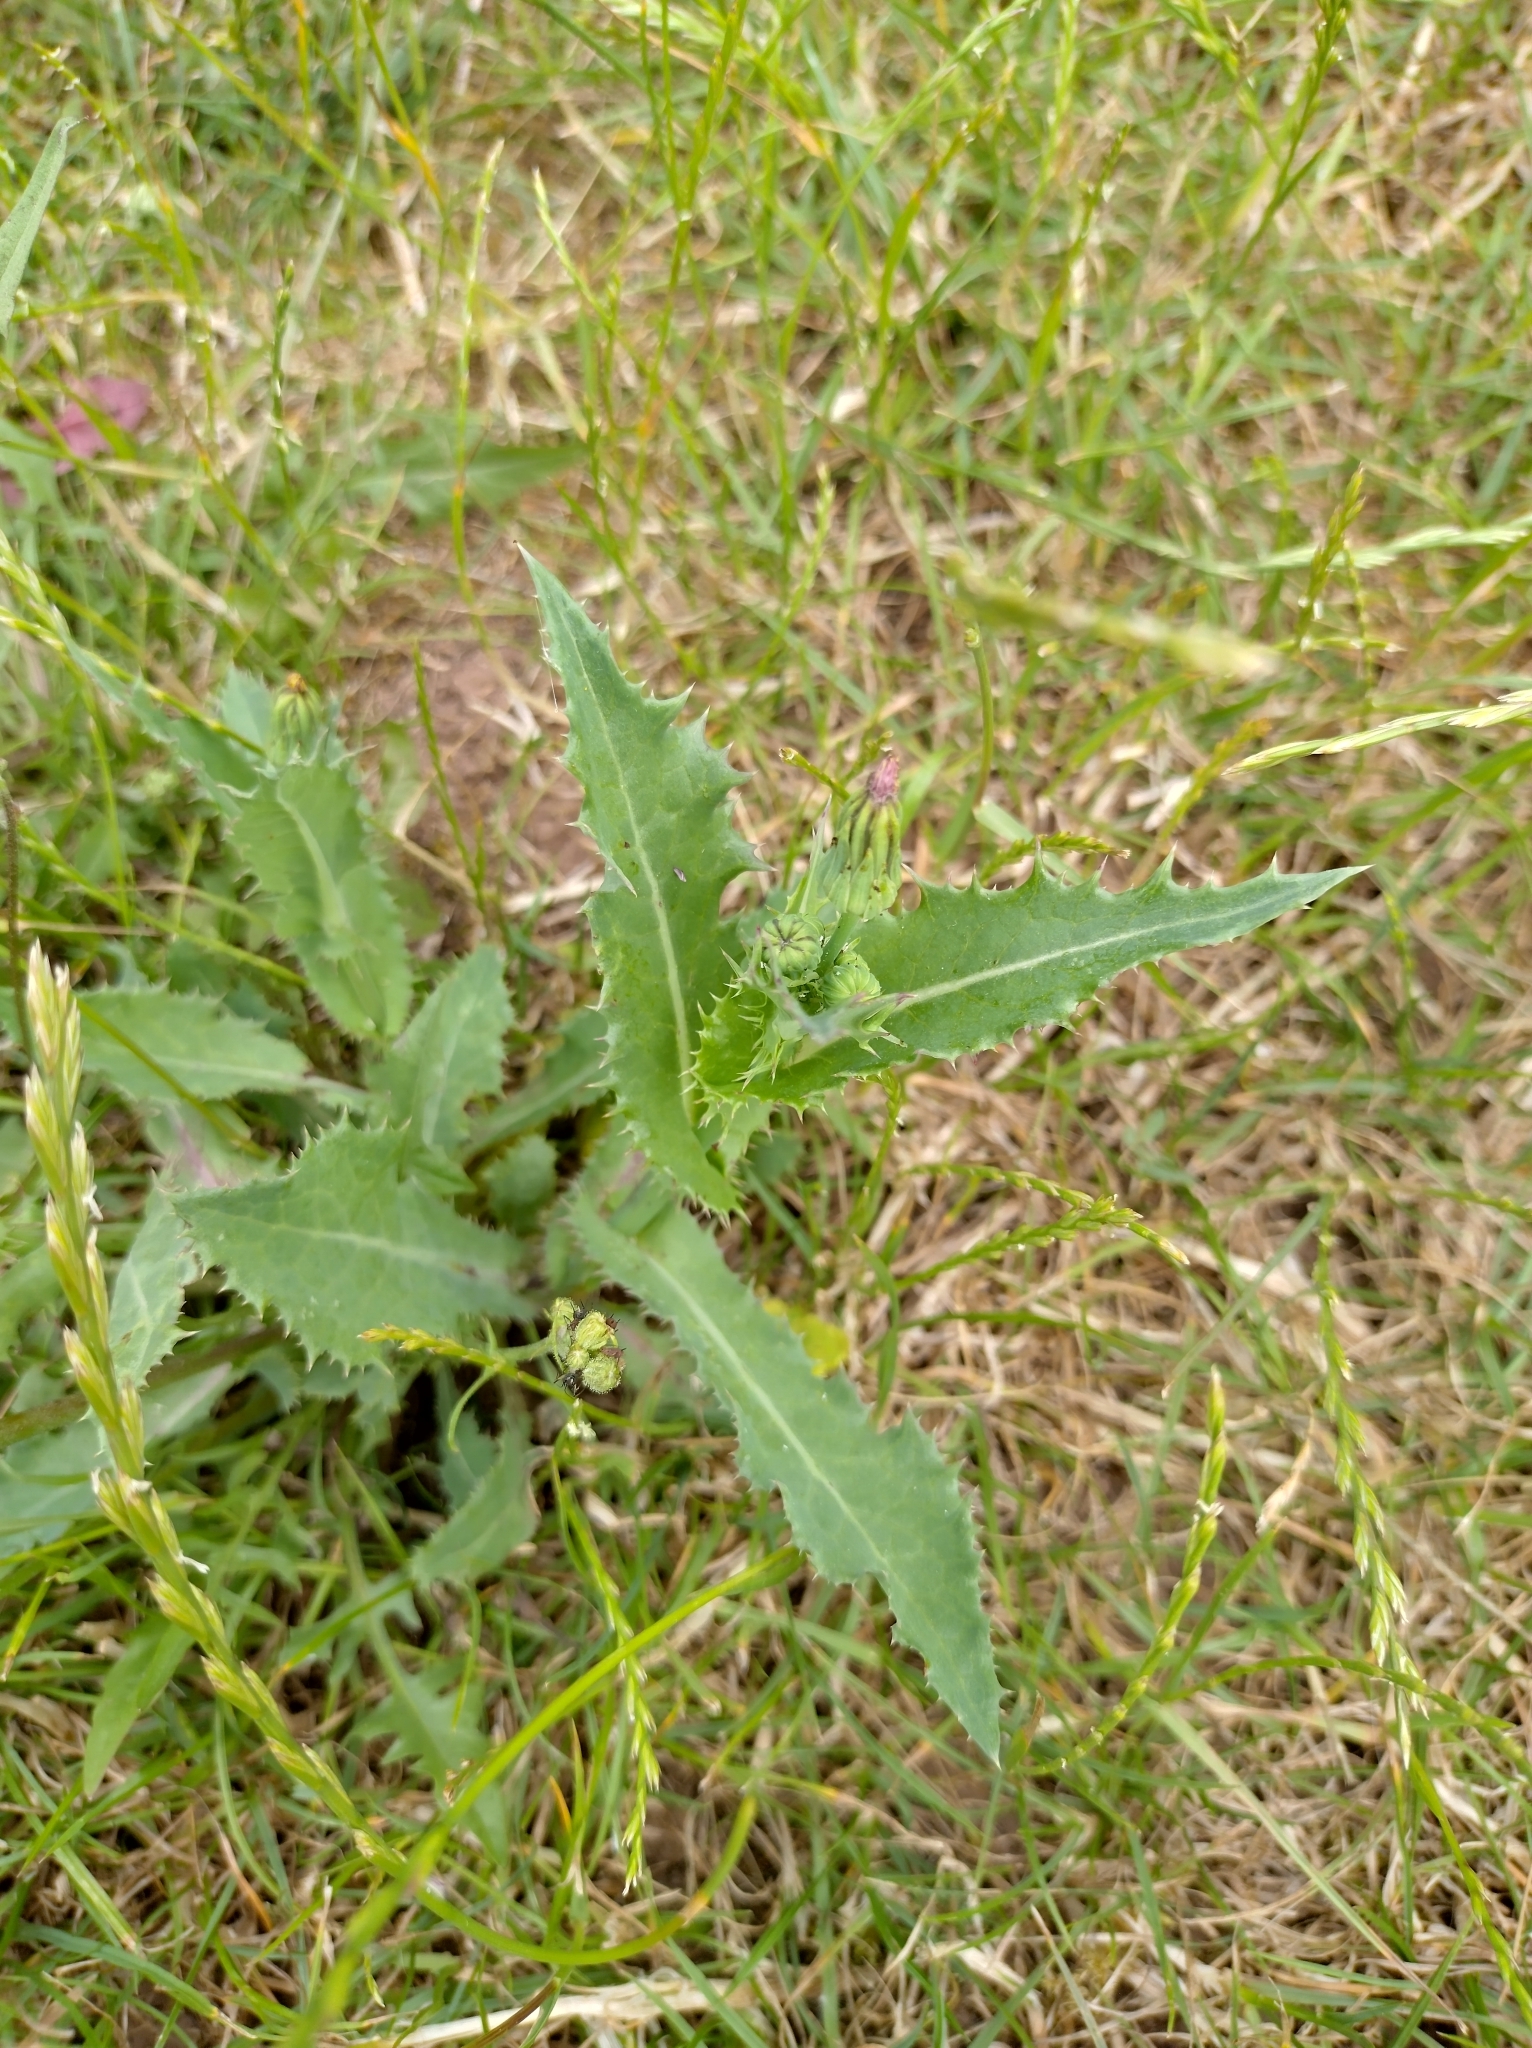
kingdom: Plantae
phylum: Tracheophyta
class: Magnoliopsida
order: Asterales
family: Asteraceae
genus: Sonchus
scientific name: Sonchus asper
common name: Prickly sow-thistle
